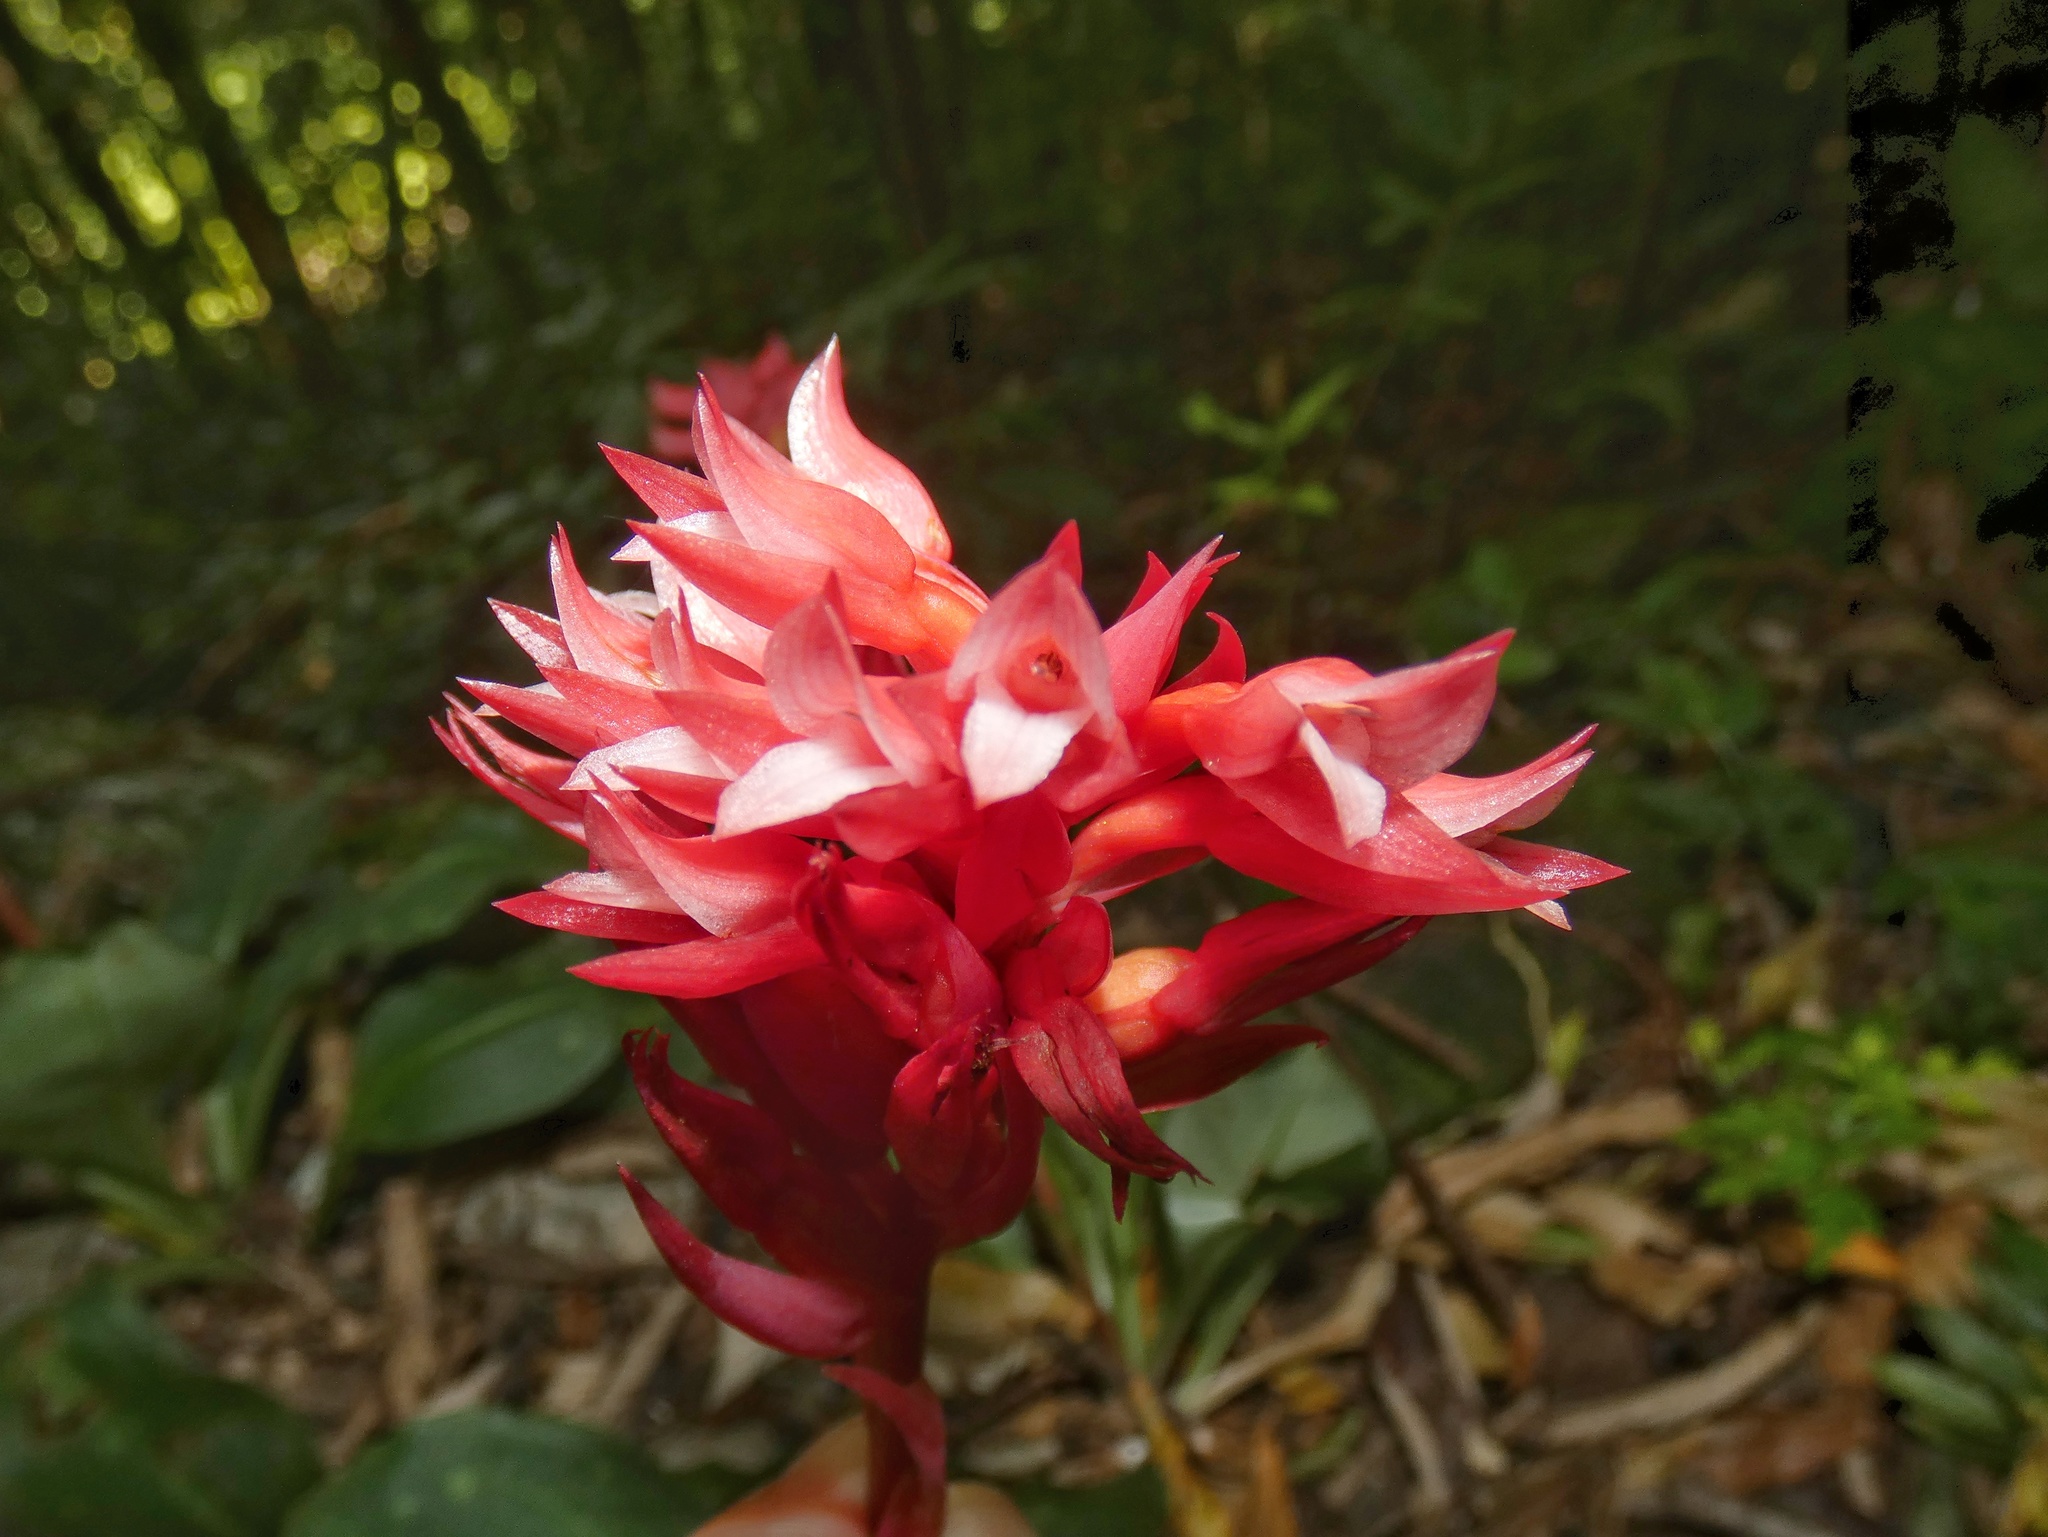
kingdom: Plantae
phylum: Tracheophyta
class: Liliopsida
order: Asparagales
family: Orchidaceae
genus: Stenorrhynchos
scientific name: Stenorrhynchos albidomaculatum
